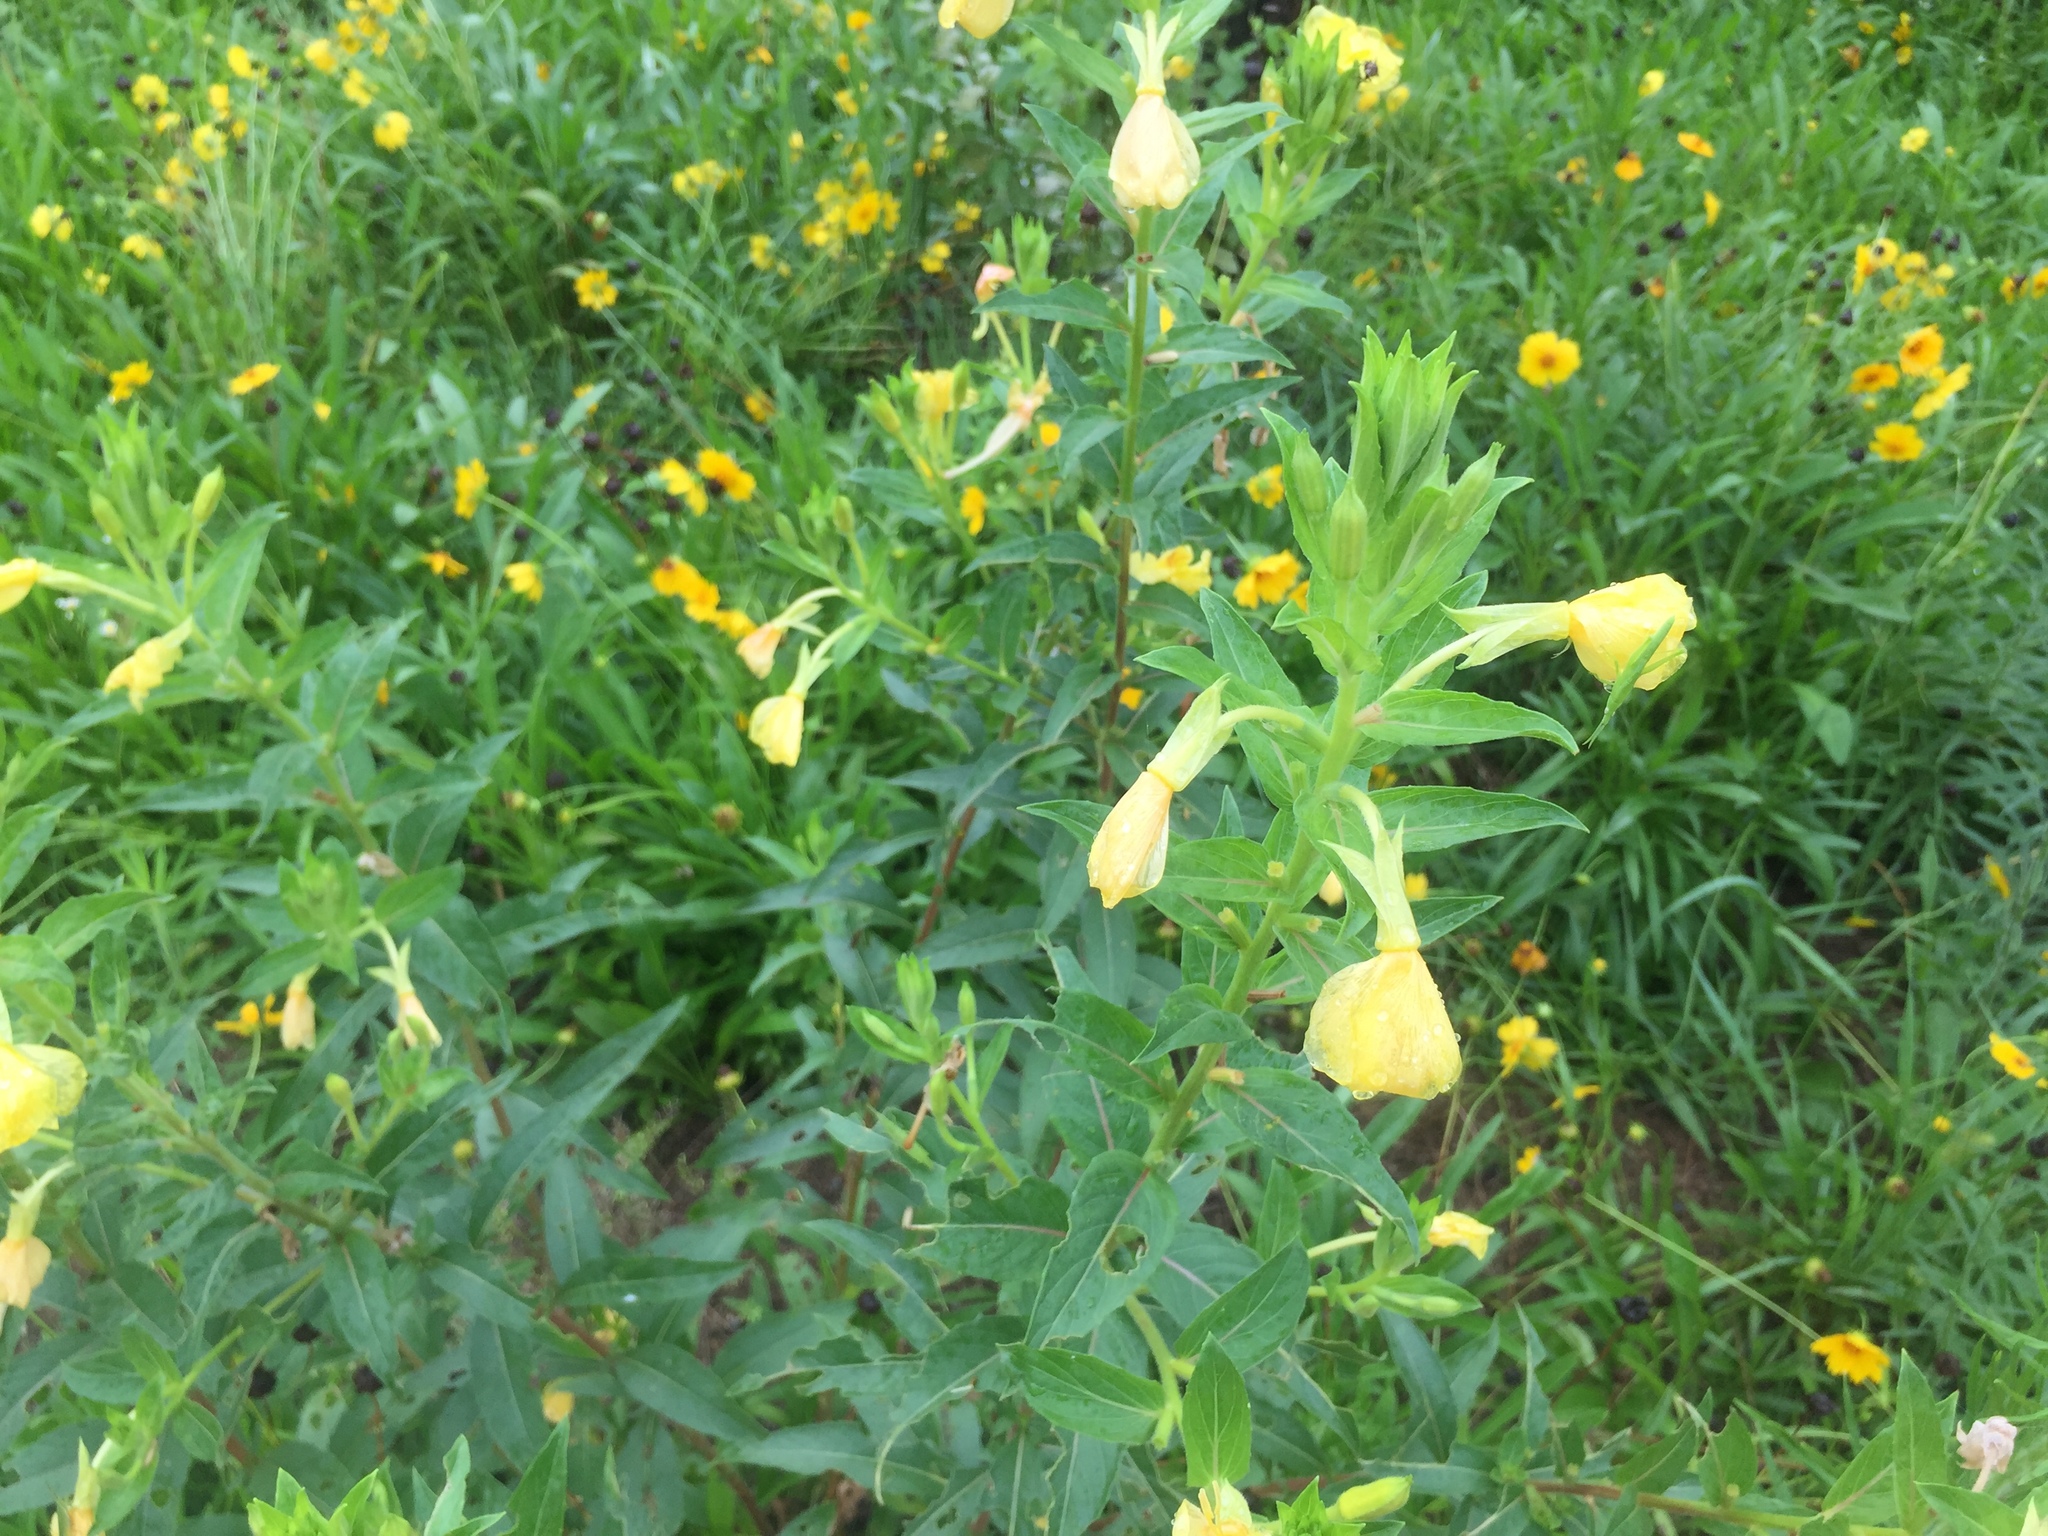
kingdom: Plantae
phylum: Tracheophyta
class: Magnoliopsida
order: Myrtales
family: Onagraceae
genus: Oenothera
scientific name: Oenothera biennis
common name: Common evening-primrose
